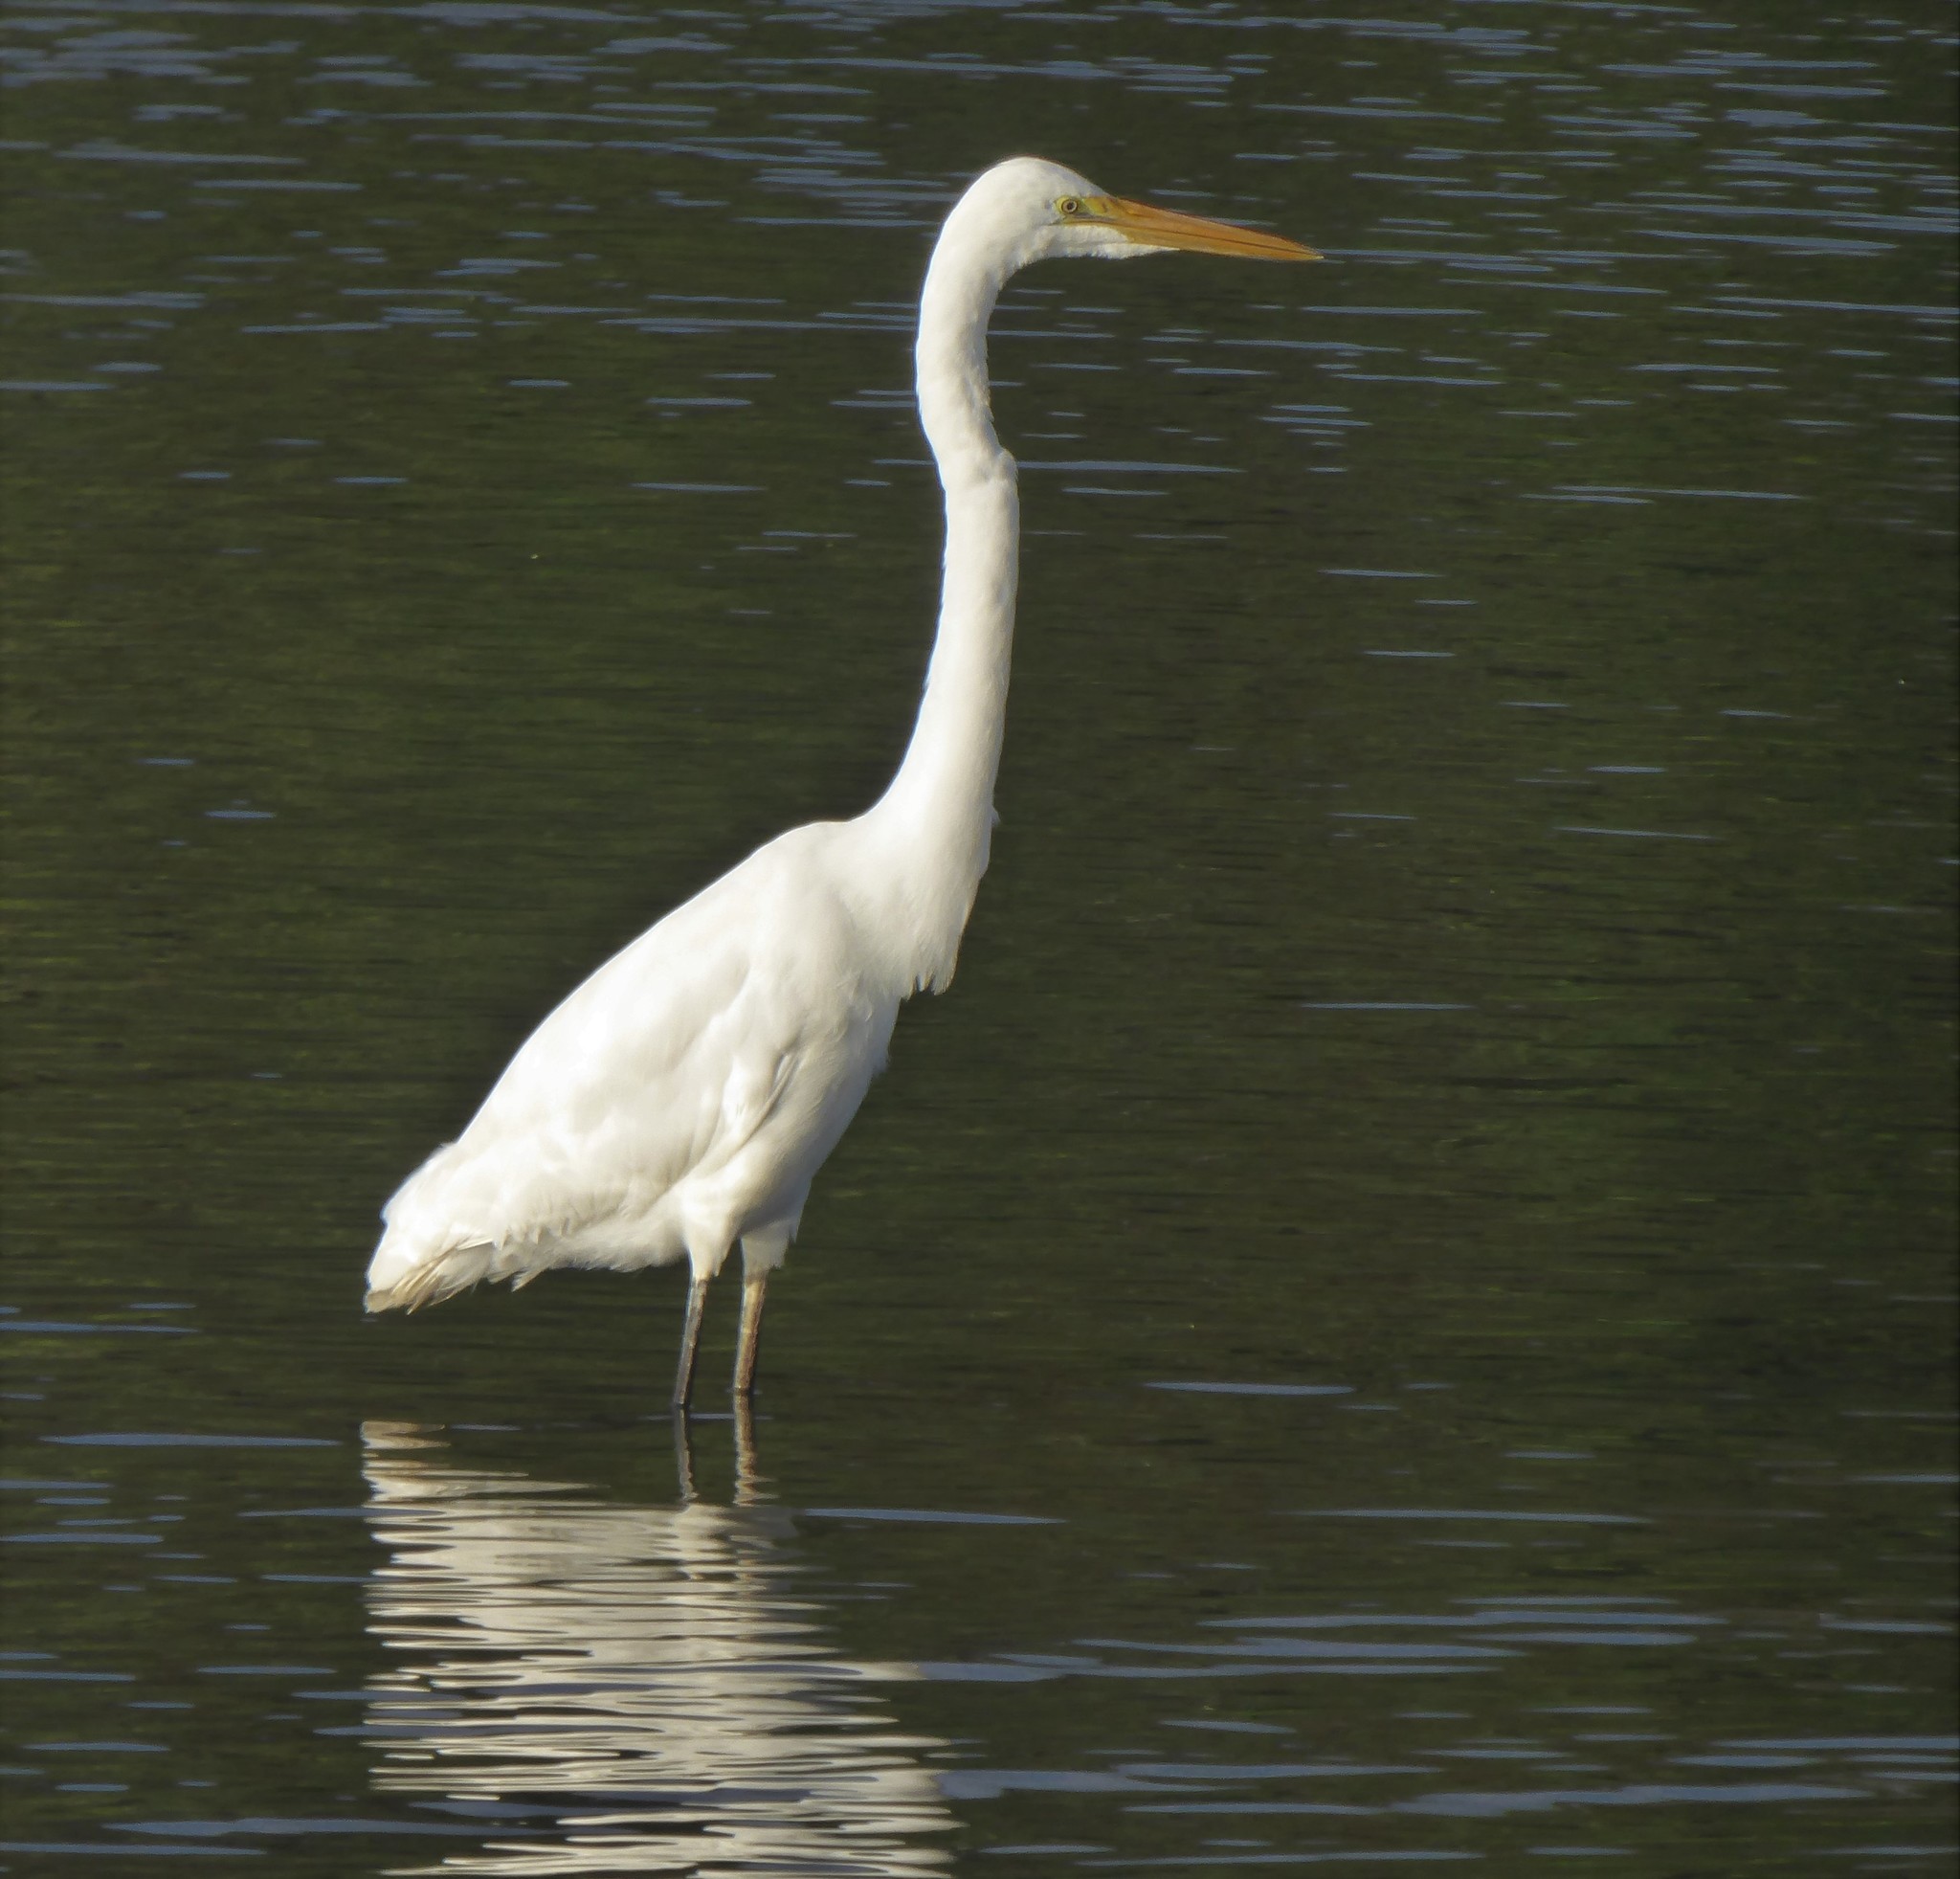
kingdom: Animalia
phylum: Chordata
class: Aves
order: Pelecaniformes
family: Ardeidae
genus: Ardea
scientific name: Ardea modesta
